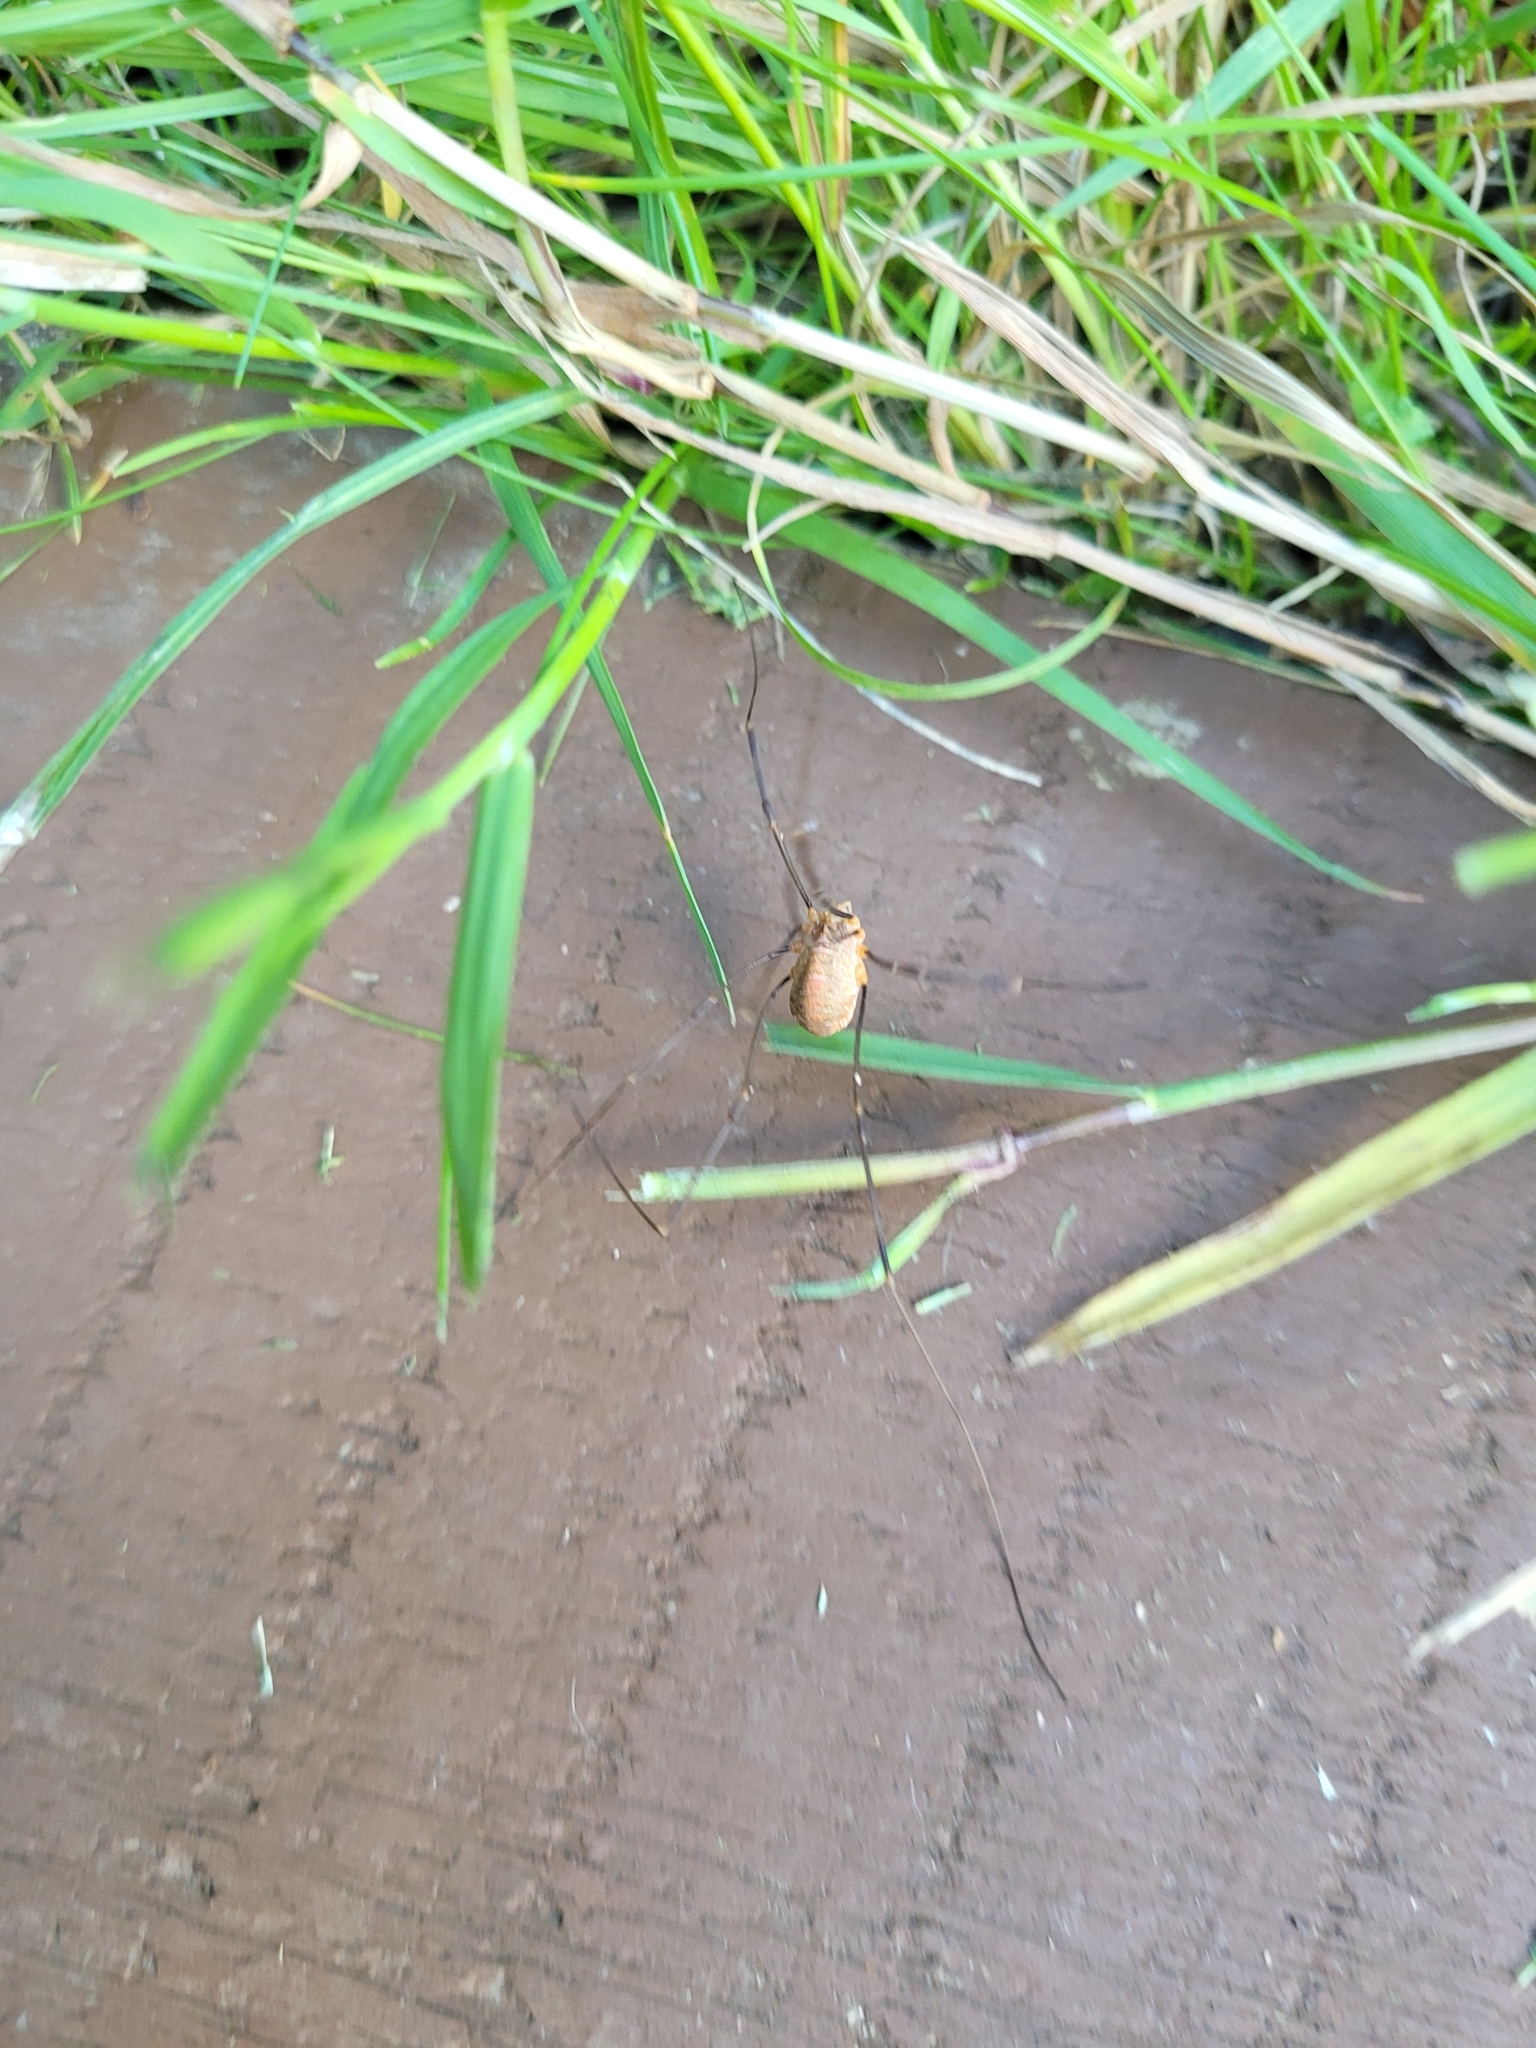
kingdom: Animalia
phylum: Arthropoda
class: Arachnida
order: Opiliones
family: Phalangiidae
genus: Opilio
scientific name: Opilio canestrinii
